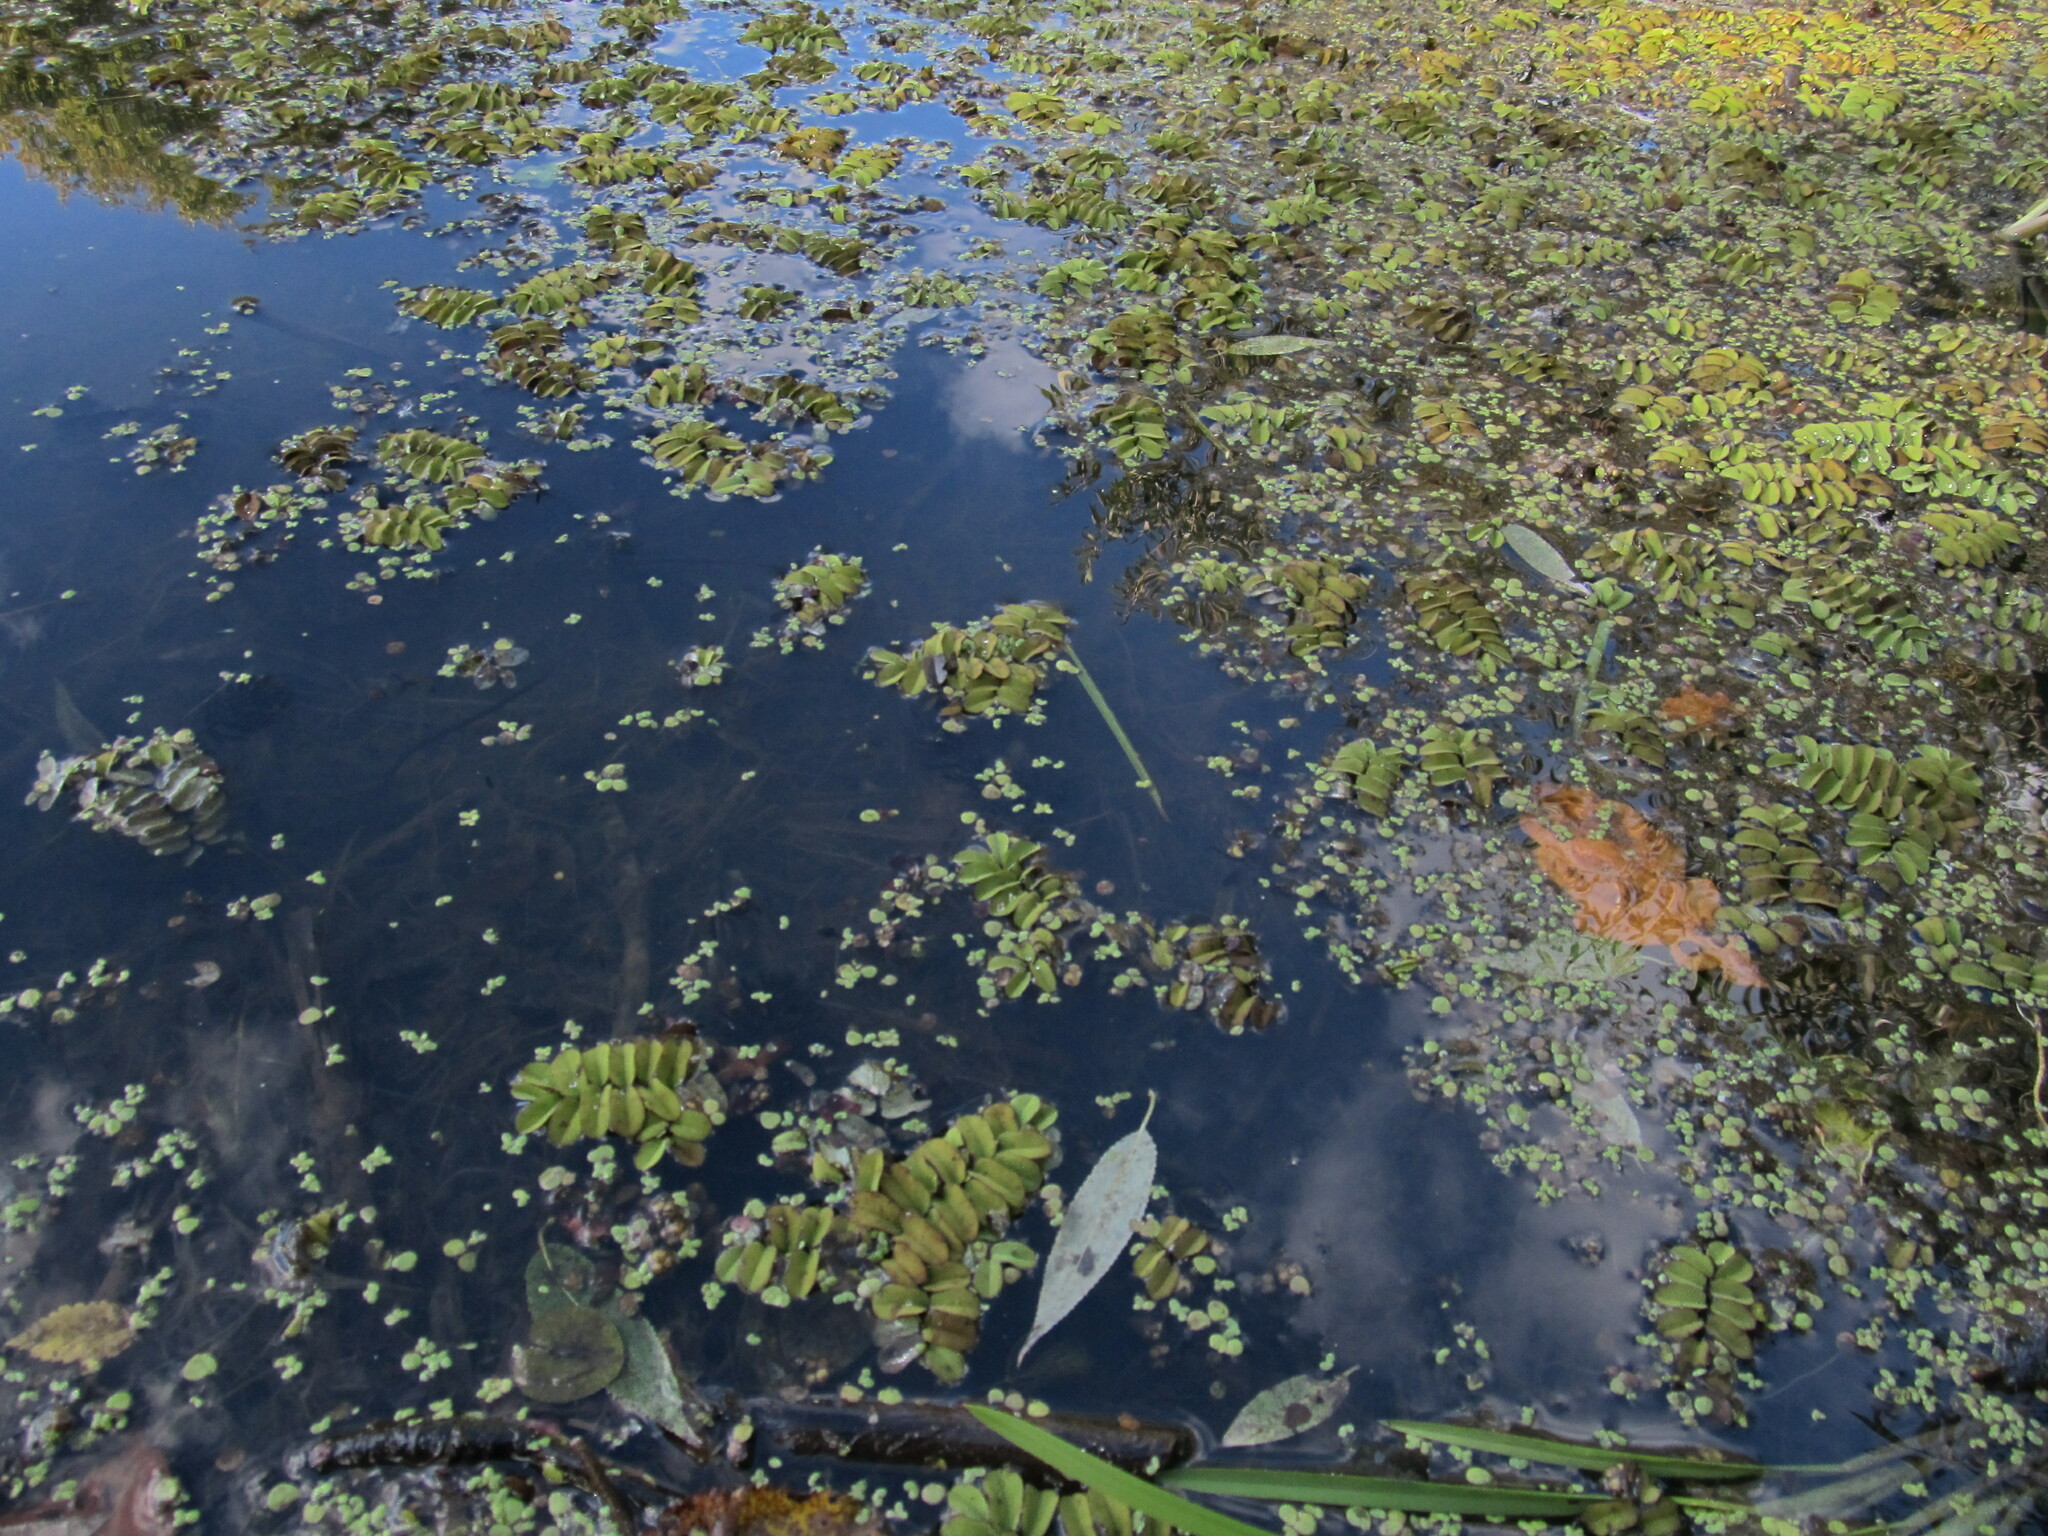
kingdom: Plantae
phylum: Tracheophyta
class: Polypodiopsida
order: Salviniales
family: Salviniaceae
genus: Salvinia
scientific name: Salvinia natans
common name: Floating fern
